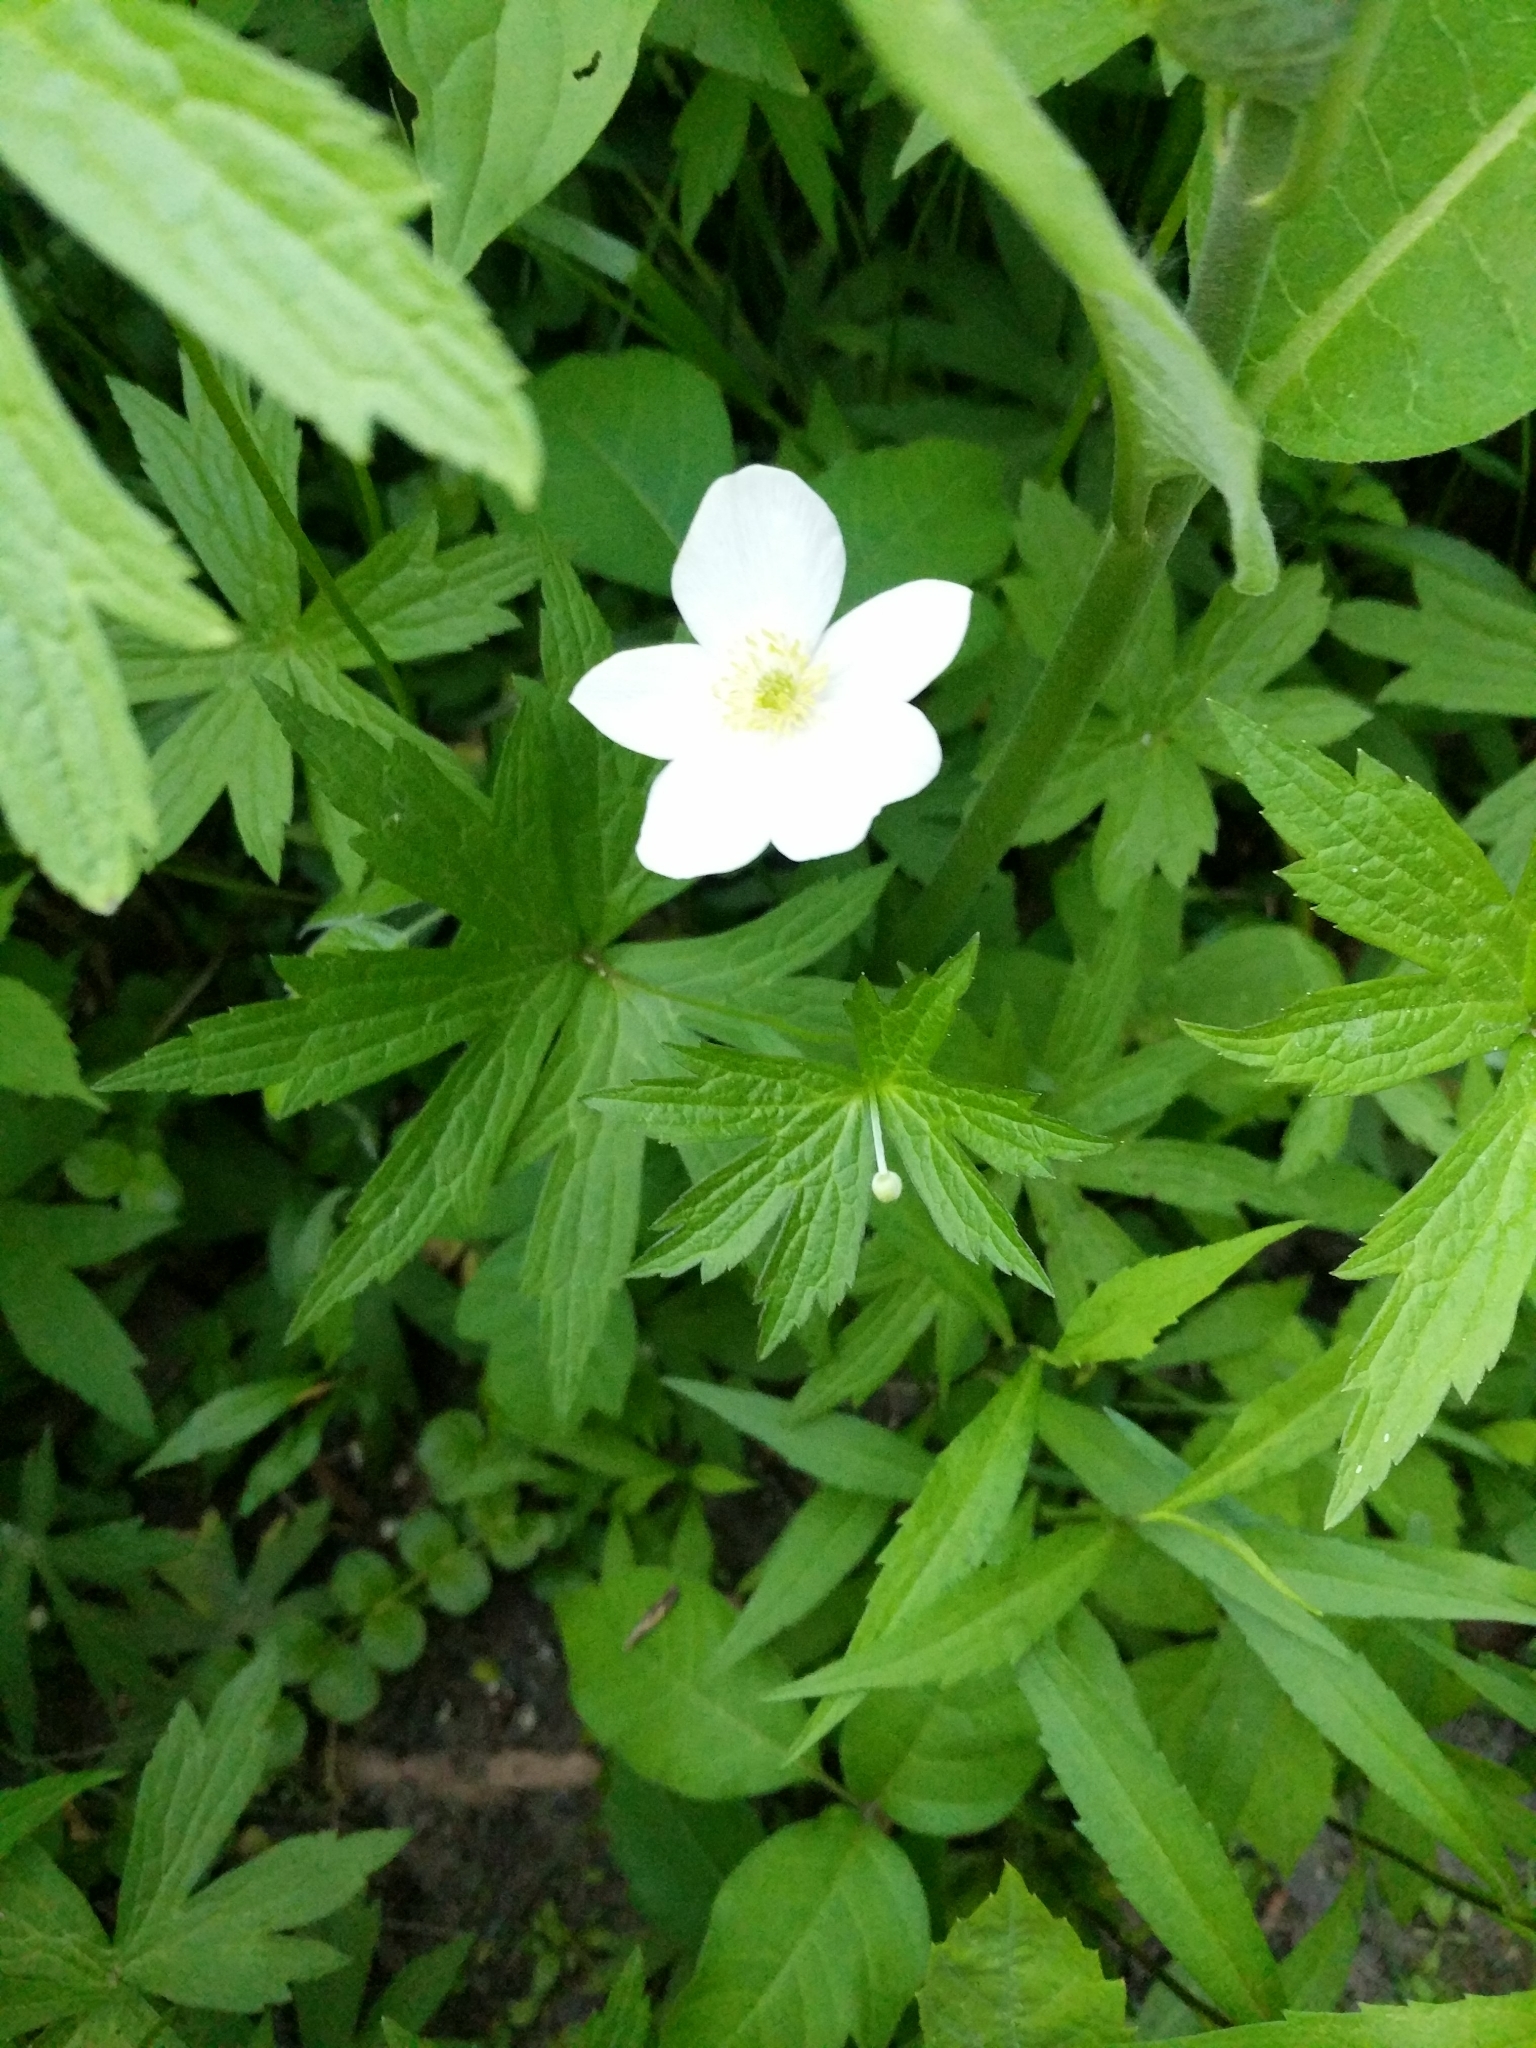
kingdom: Plantae
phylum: Tracheophyta
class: Magnoliopsida
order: Ranunculales
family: Ranunculaceae
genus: Anemonastrum
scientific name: Anemonastrum canadense
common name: Canada anemone
